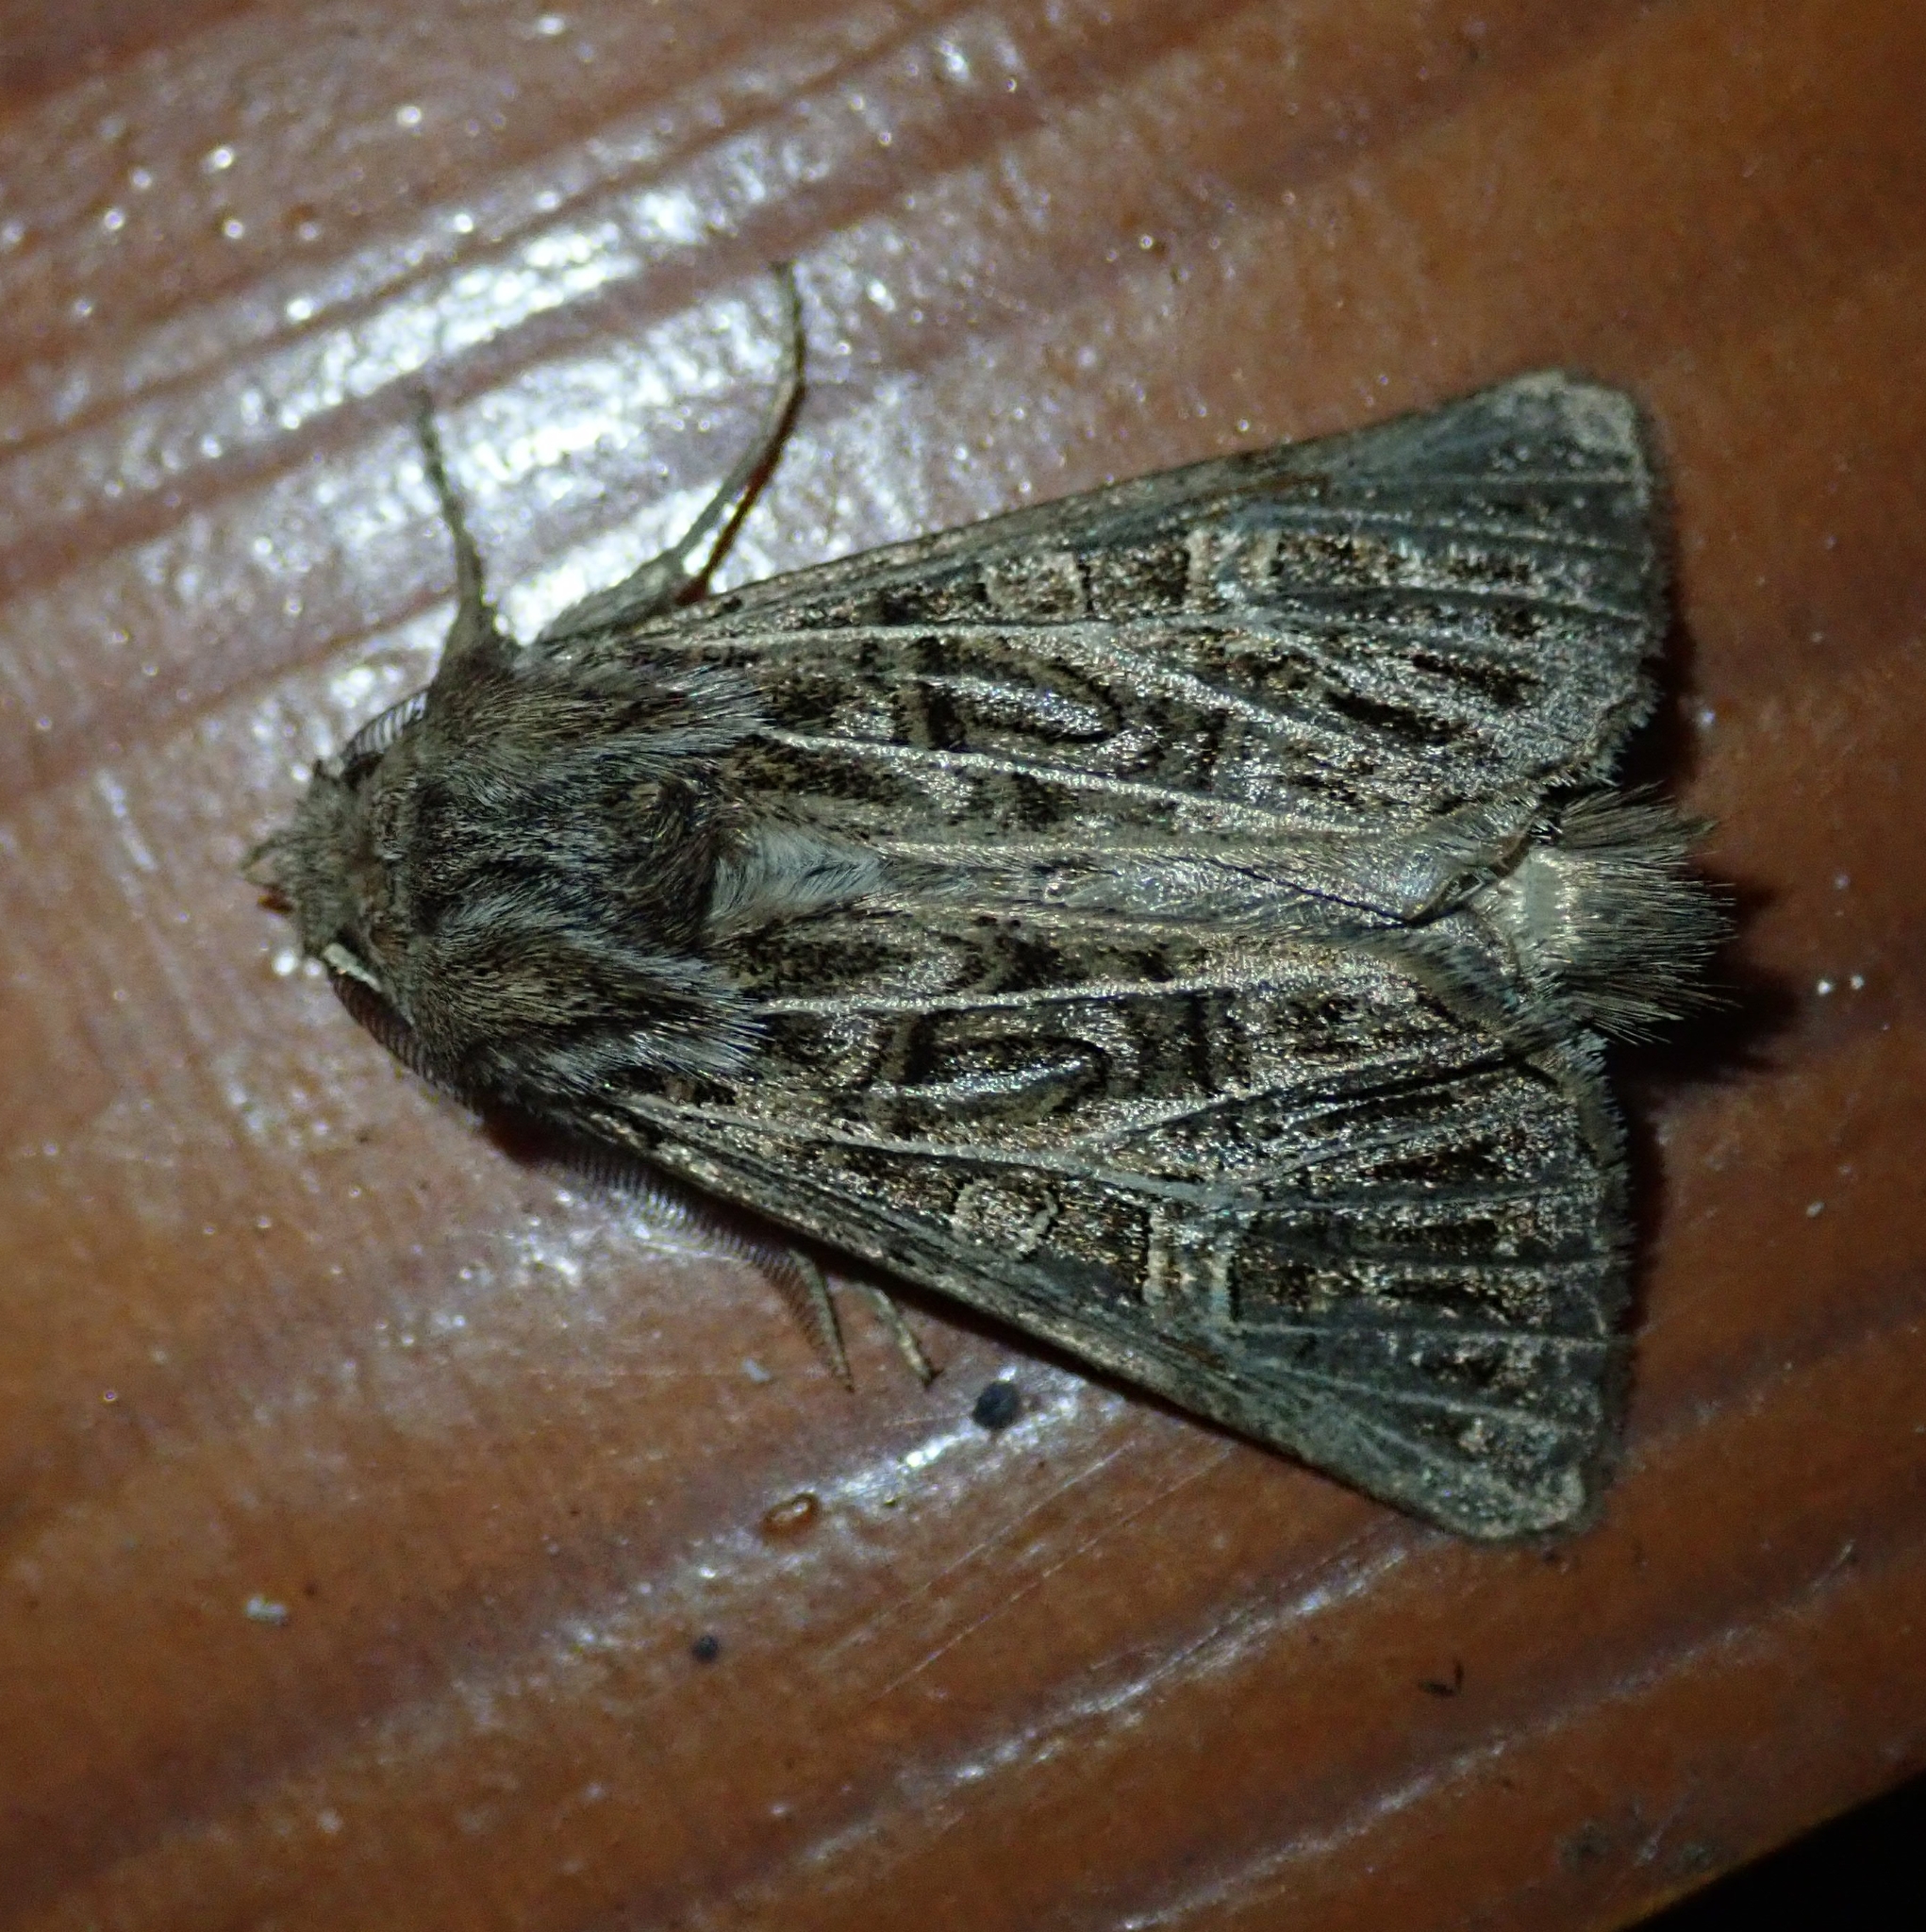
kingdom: Animalia
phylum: Arthropoda
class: Insecta
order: Lepidoptera
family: Noctuidae
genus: Tholera
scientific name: Tholera decimalis
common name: Feathered gothic
